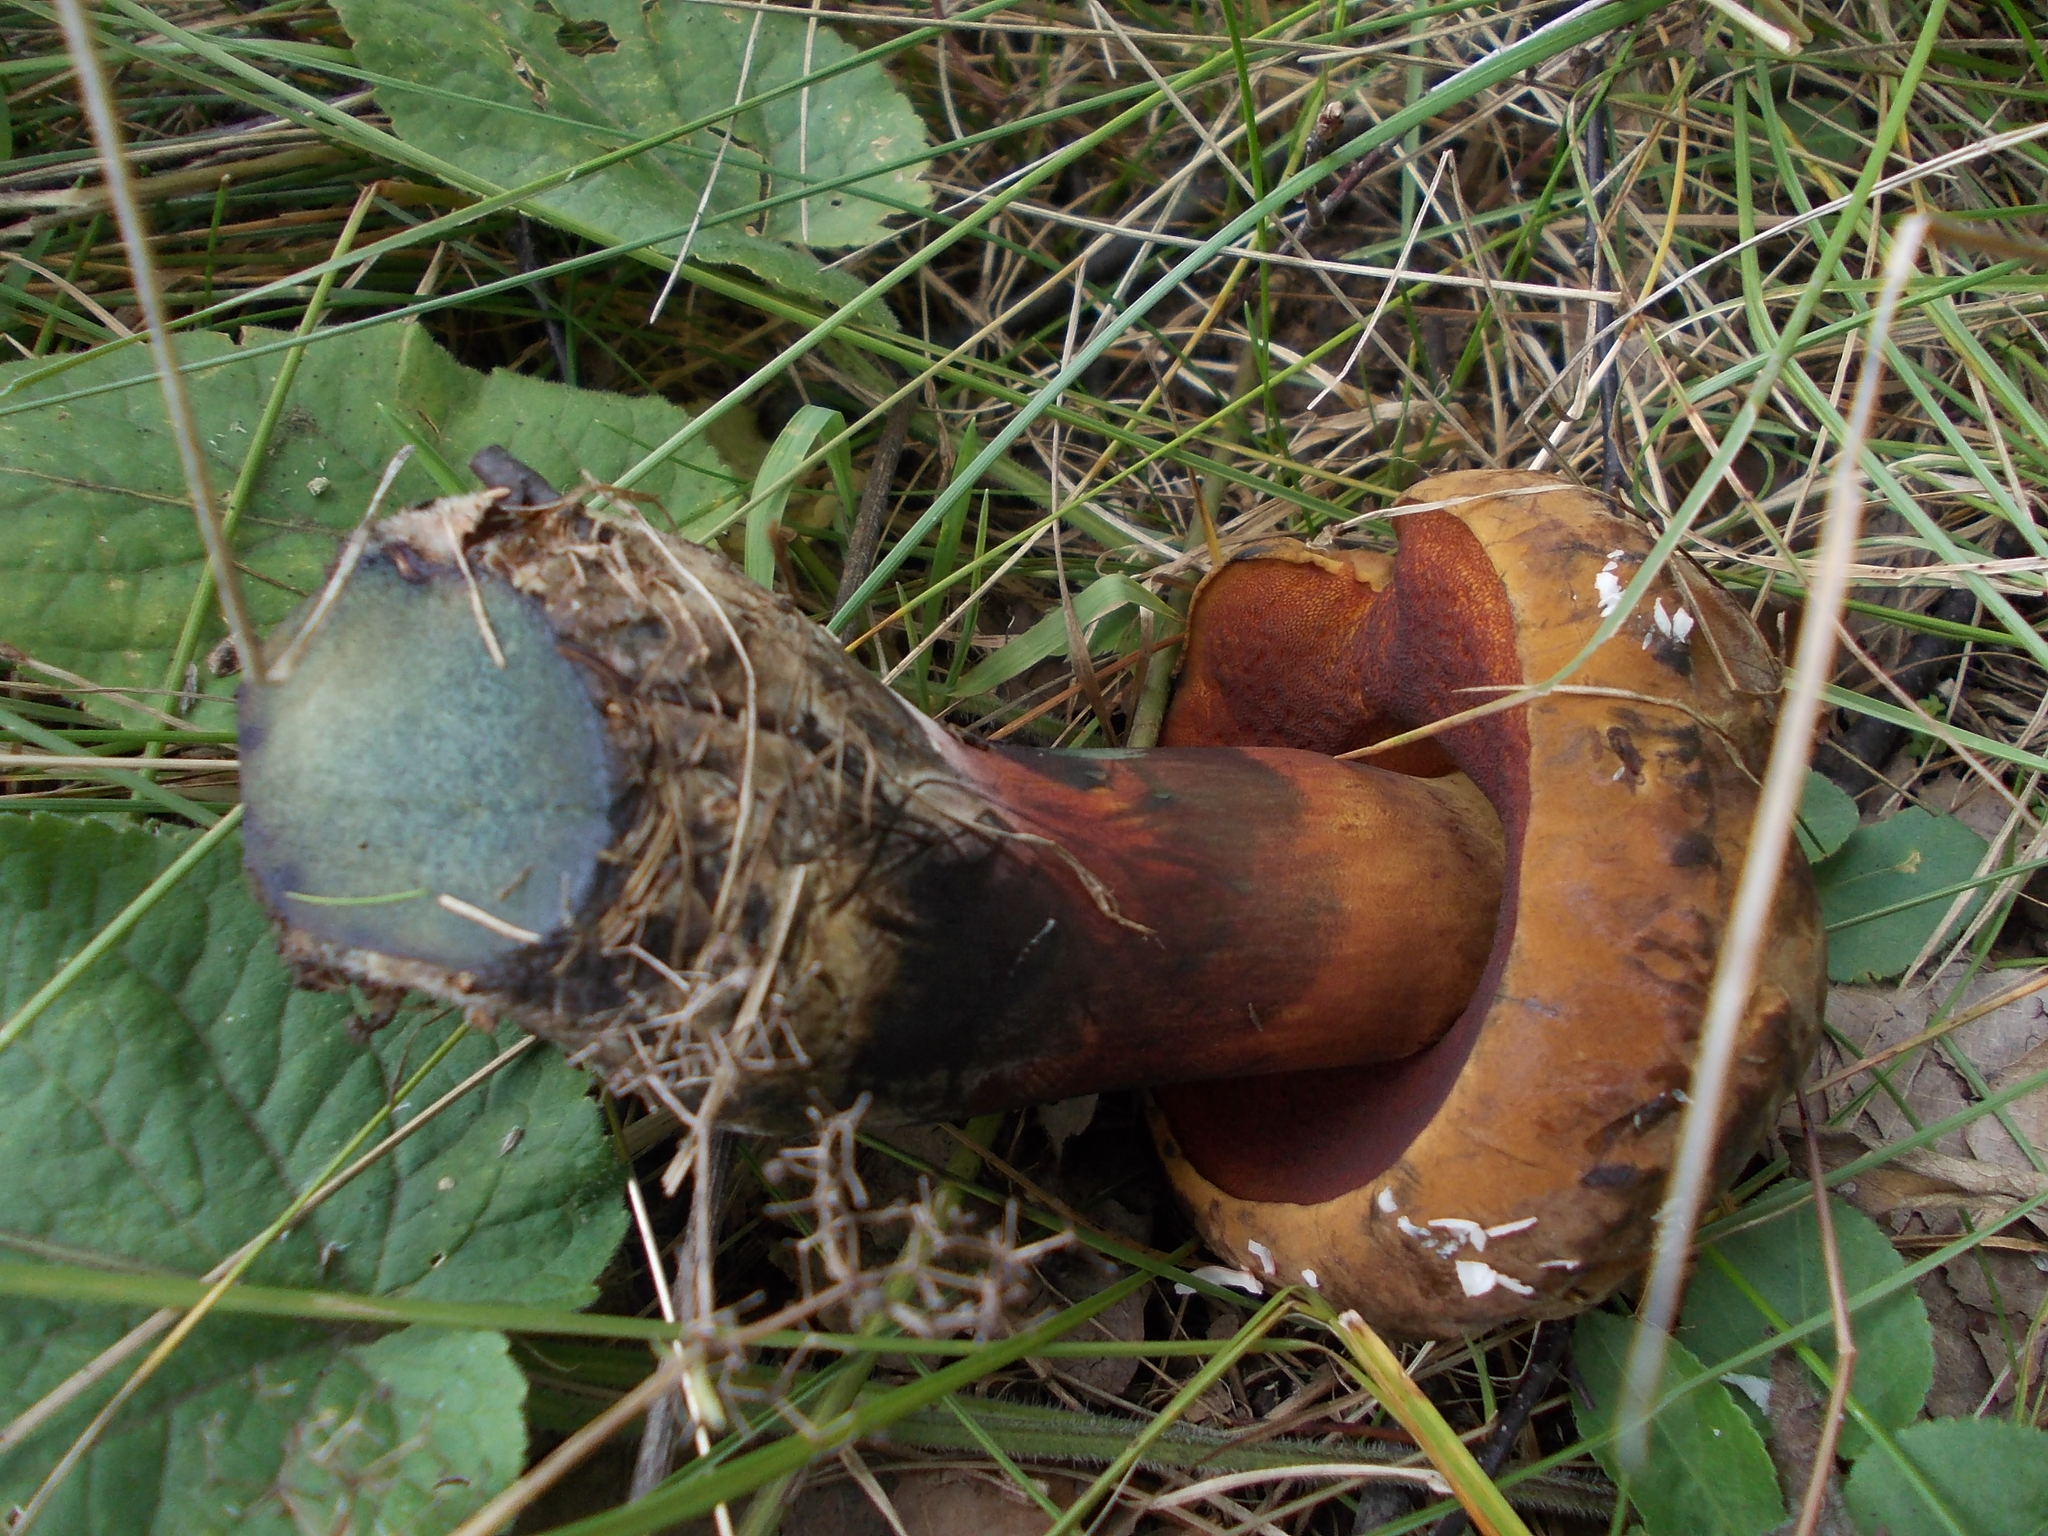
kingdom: Fungi
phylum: Basidiomycota
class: Agaricomycetes
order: Boletales
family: Boletaceae
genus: Neoboletus
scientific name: Neoboletus erythropus
